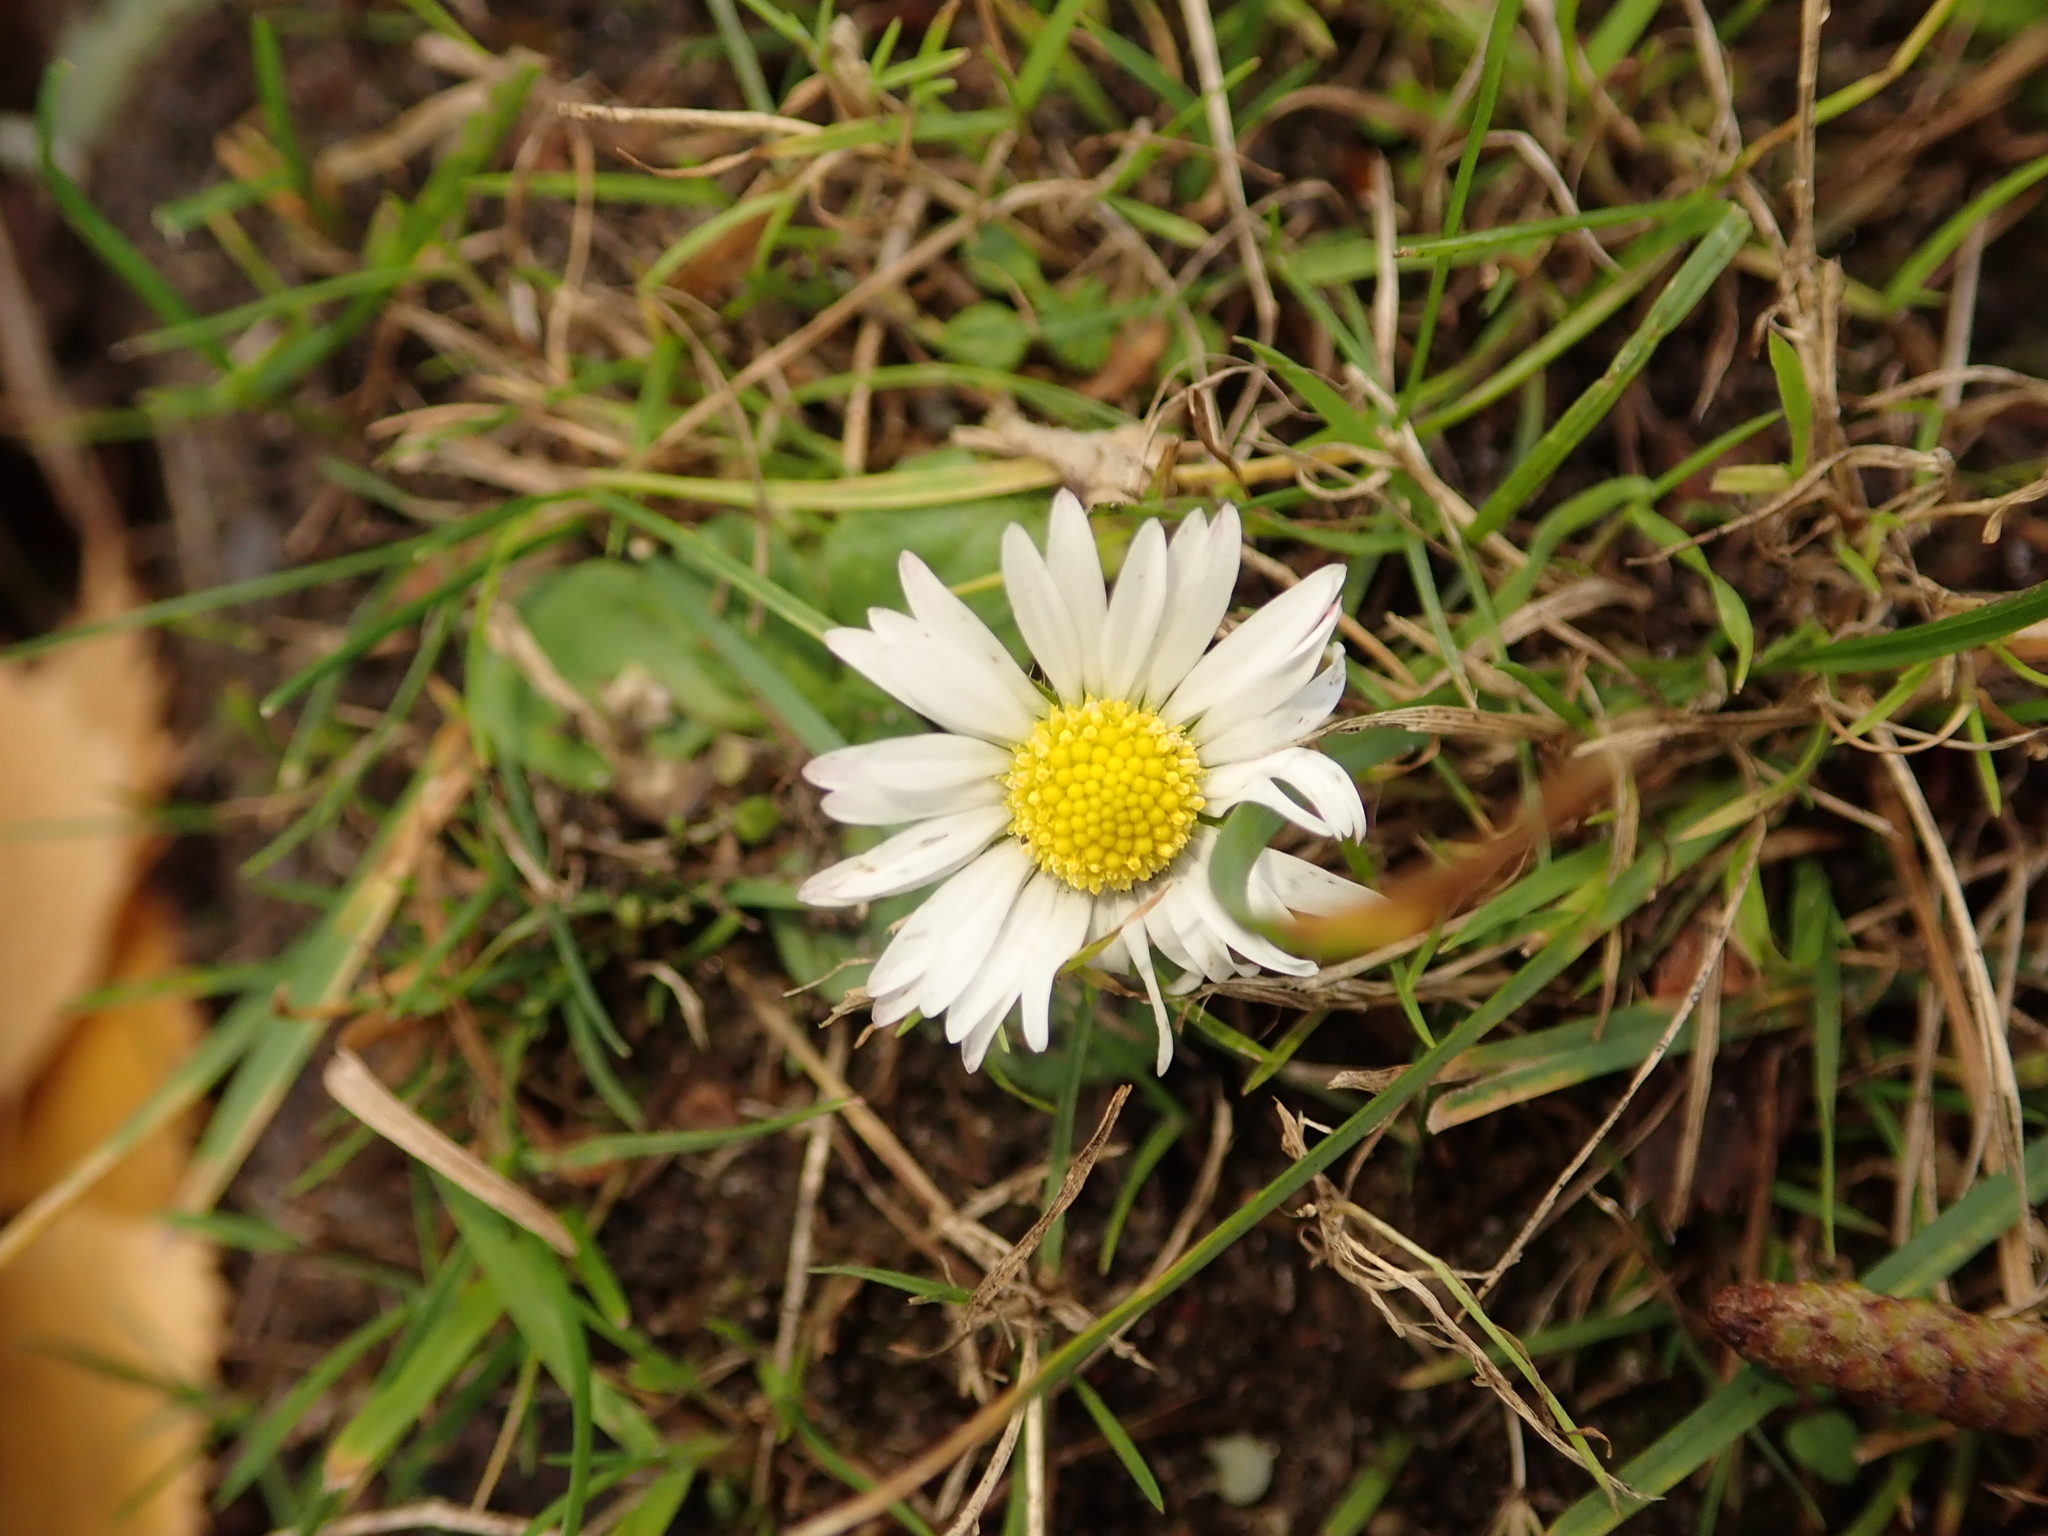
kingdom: Plantae
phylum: Tracheophyta
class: Magnoliopsida
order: Asterales
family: Asteraceae
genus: Bellis
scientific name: Bellis perennis
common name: Lawndaisy
